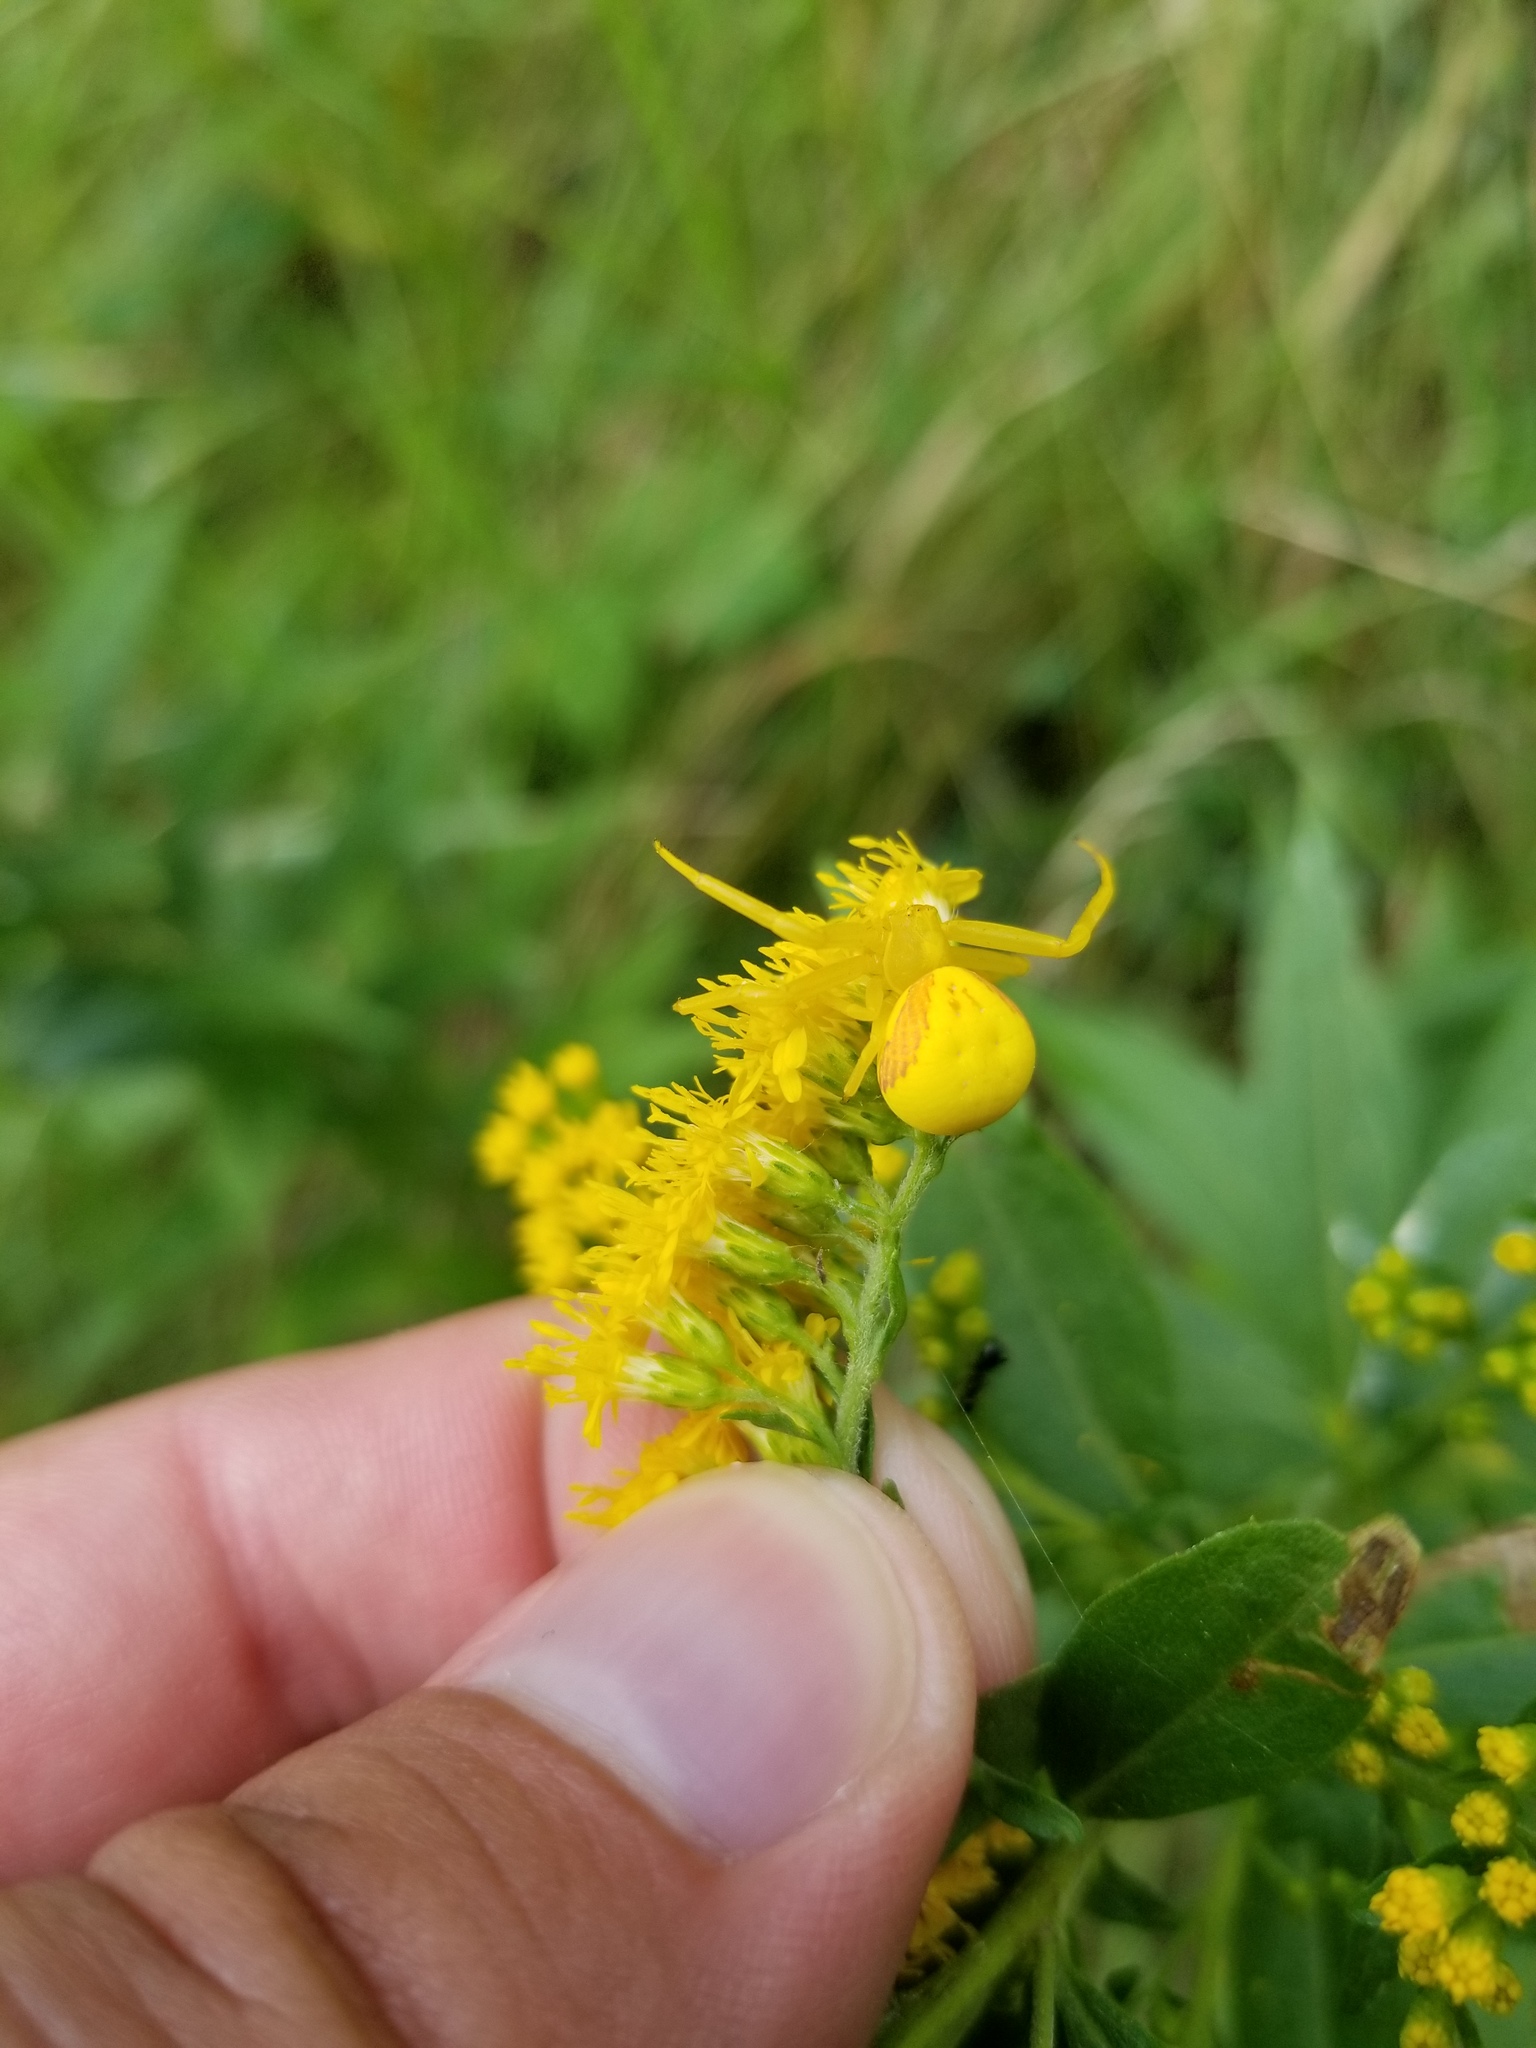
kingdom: Animalia
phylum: Arthropoda
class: Arachnida
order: Araneae
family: Thomisidae
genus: Misumena
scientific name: Misumena vatia
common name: Goldenrod crab spider
